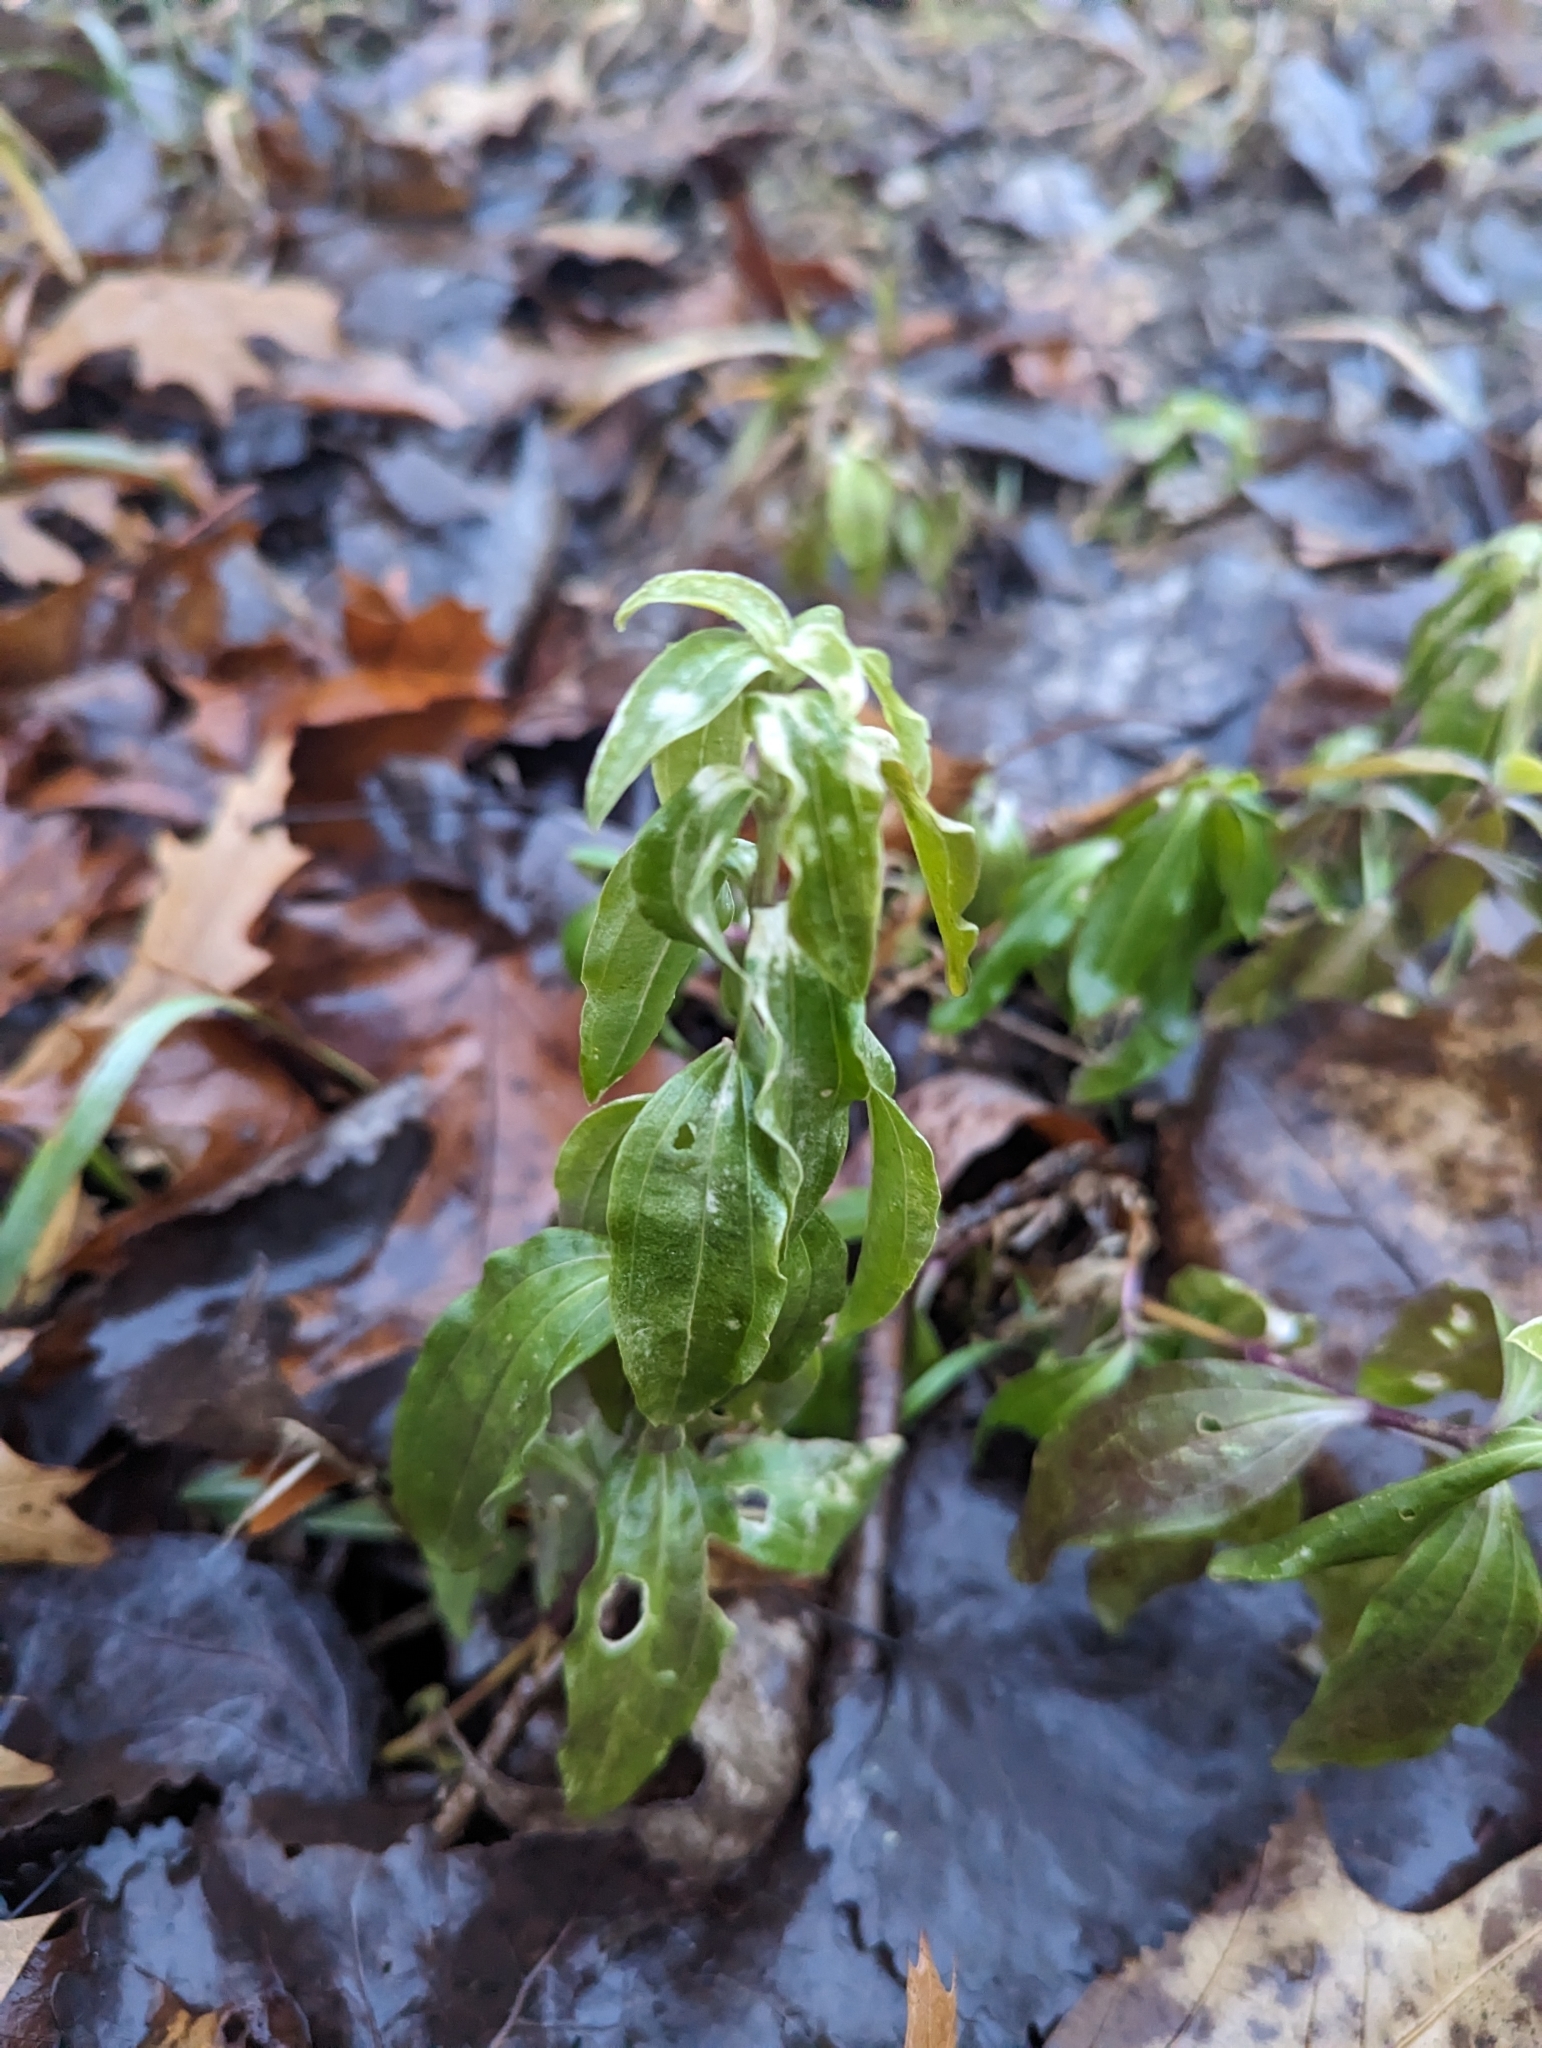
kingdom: Plantae
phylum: Tracheophyta
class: Magnoliopsida
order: Caryophyllales
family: Caryophyllaceae
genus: Saponaria
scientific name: Saponaria officinalis
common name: Soapwort
